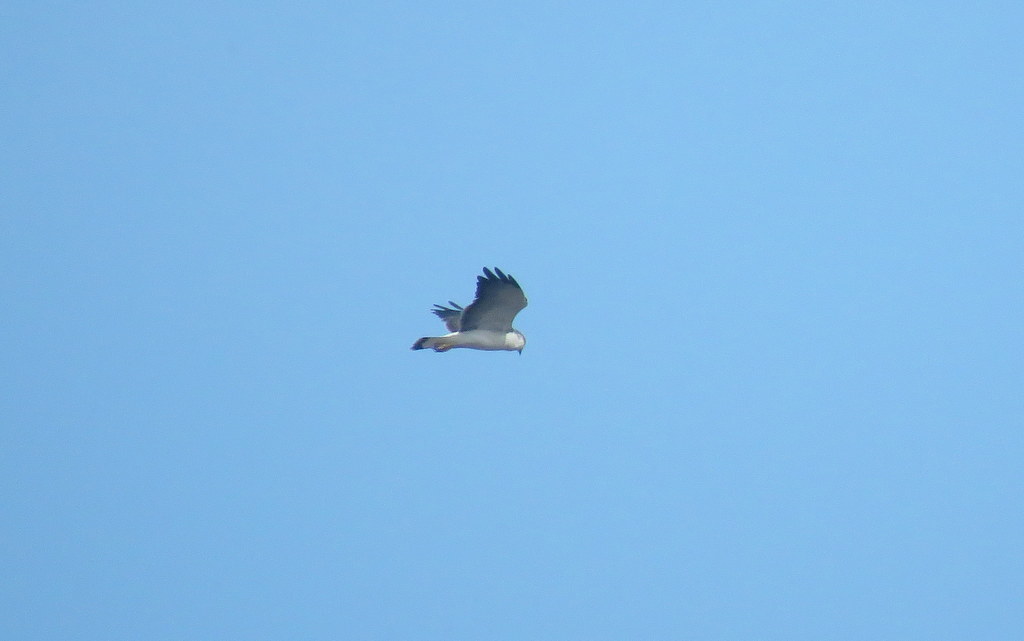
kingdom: Animalia
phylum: Chordata
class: Aves
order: Accipitriformes
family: Accipitridae
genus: Buteo
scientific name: Buteo polyosoma
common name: Variable hawk
